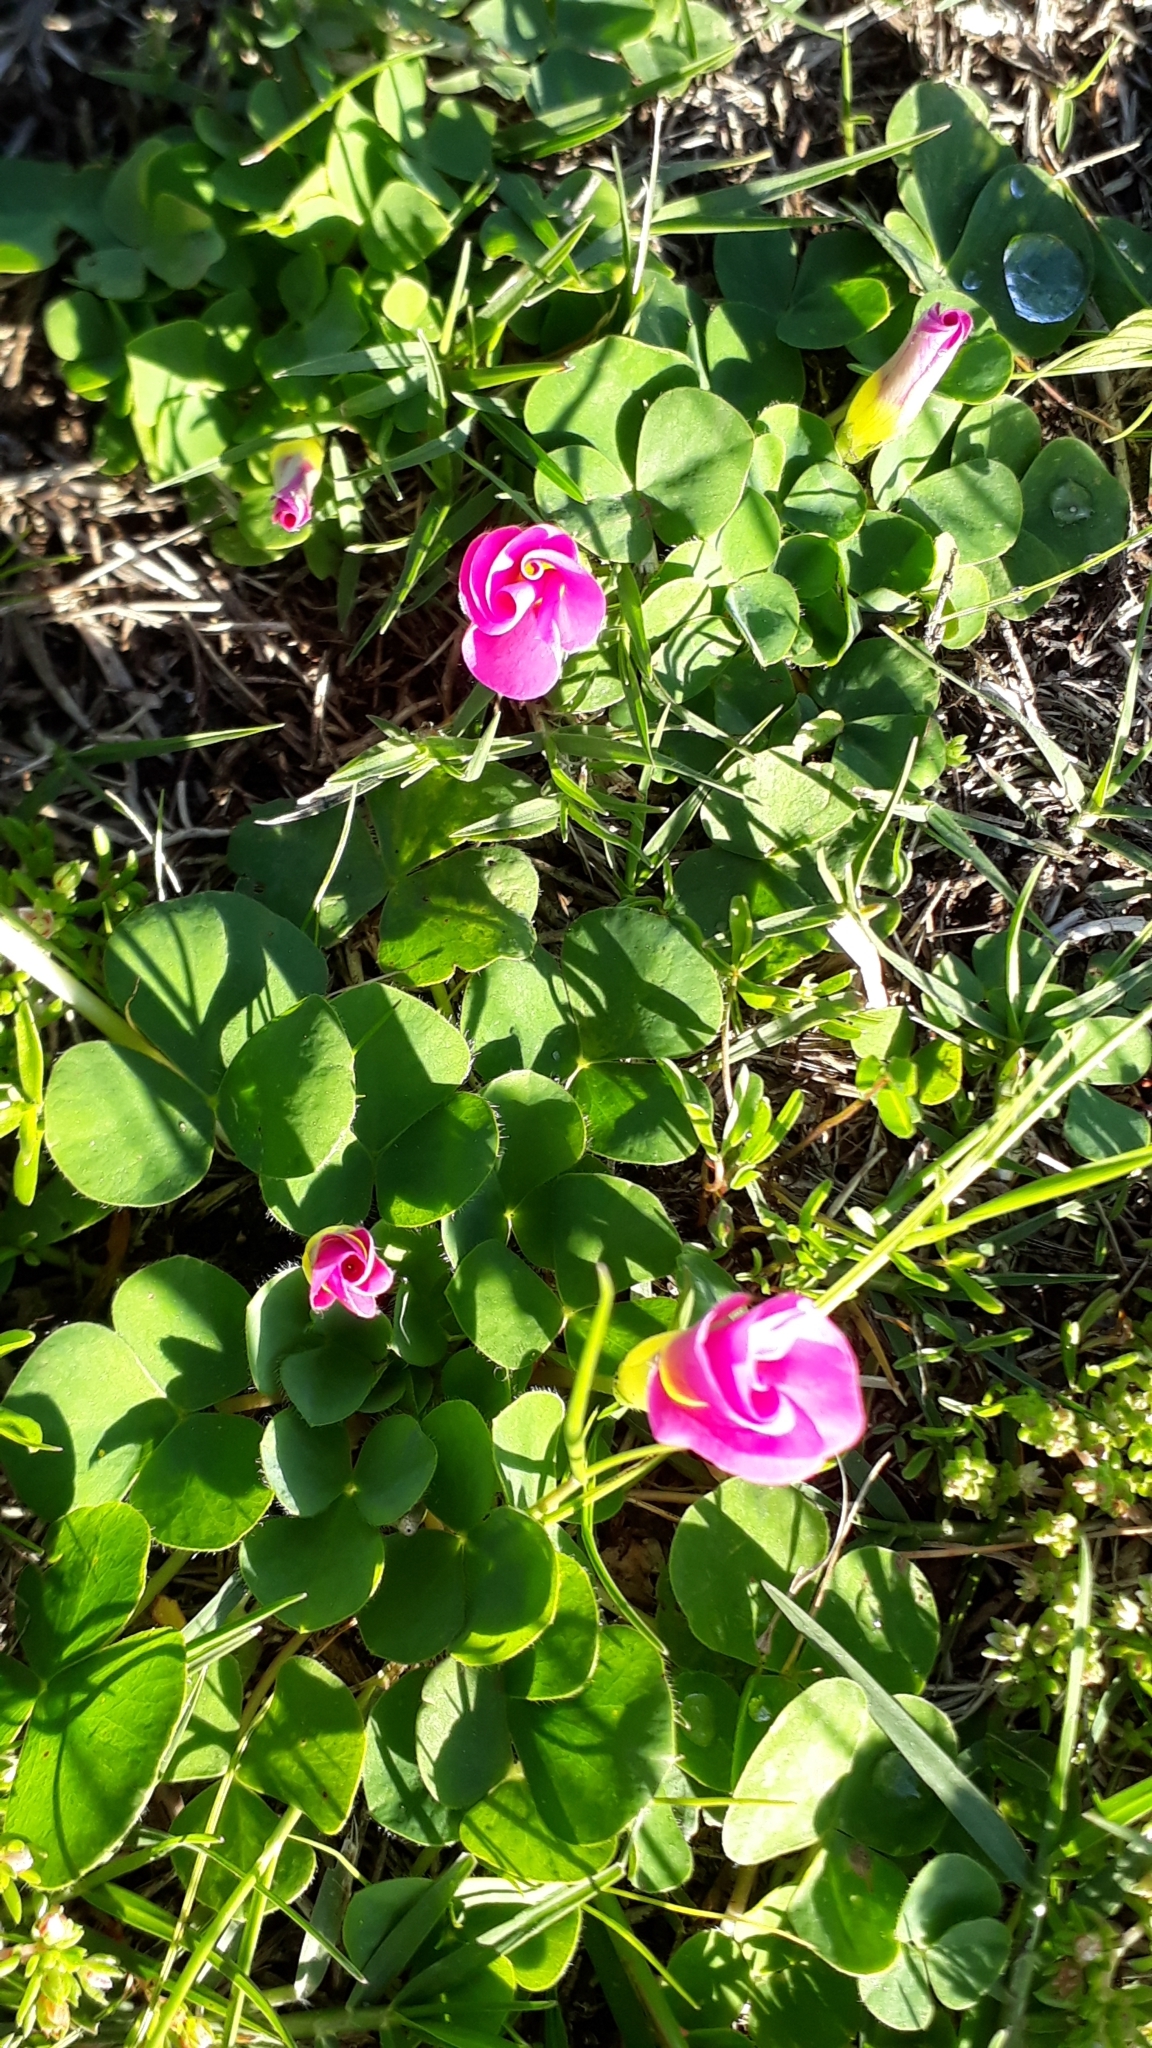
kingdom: Plantae
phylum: Tracheophyta
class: Magnoliopsida
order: Oxalidales
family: Oxalidaceae
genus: Oxalis
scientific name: Oxalis purpurea
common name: Purple woodsorrel
